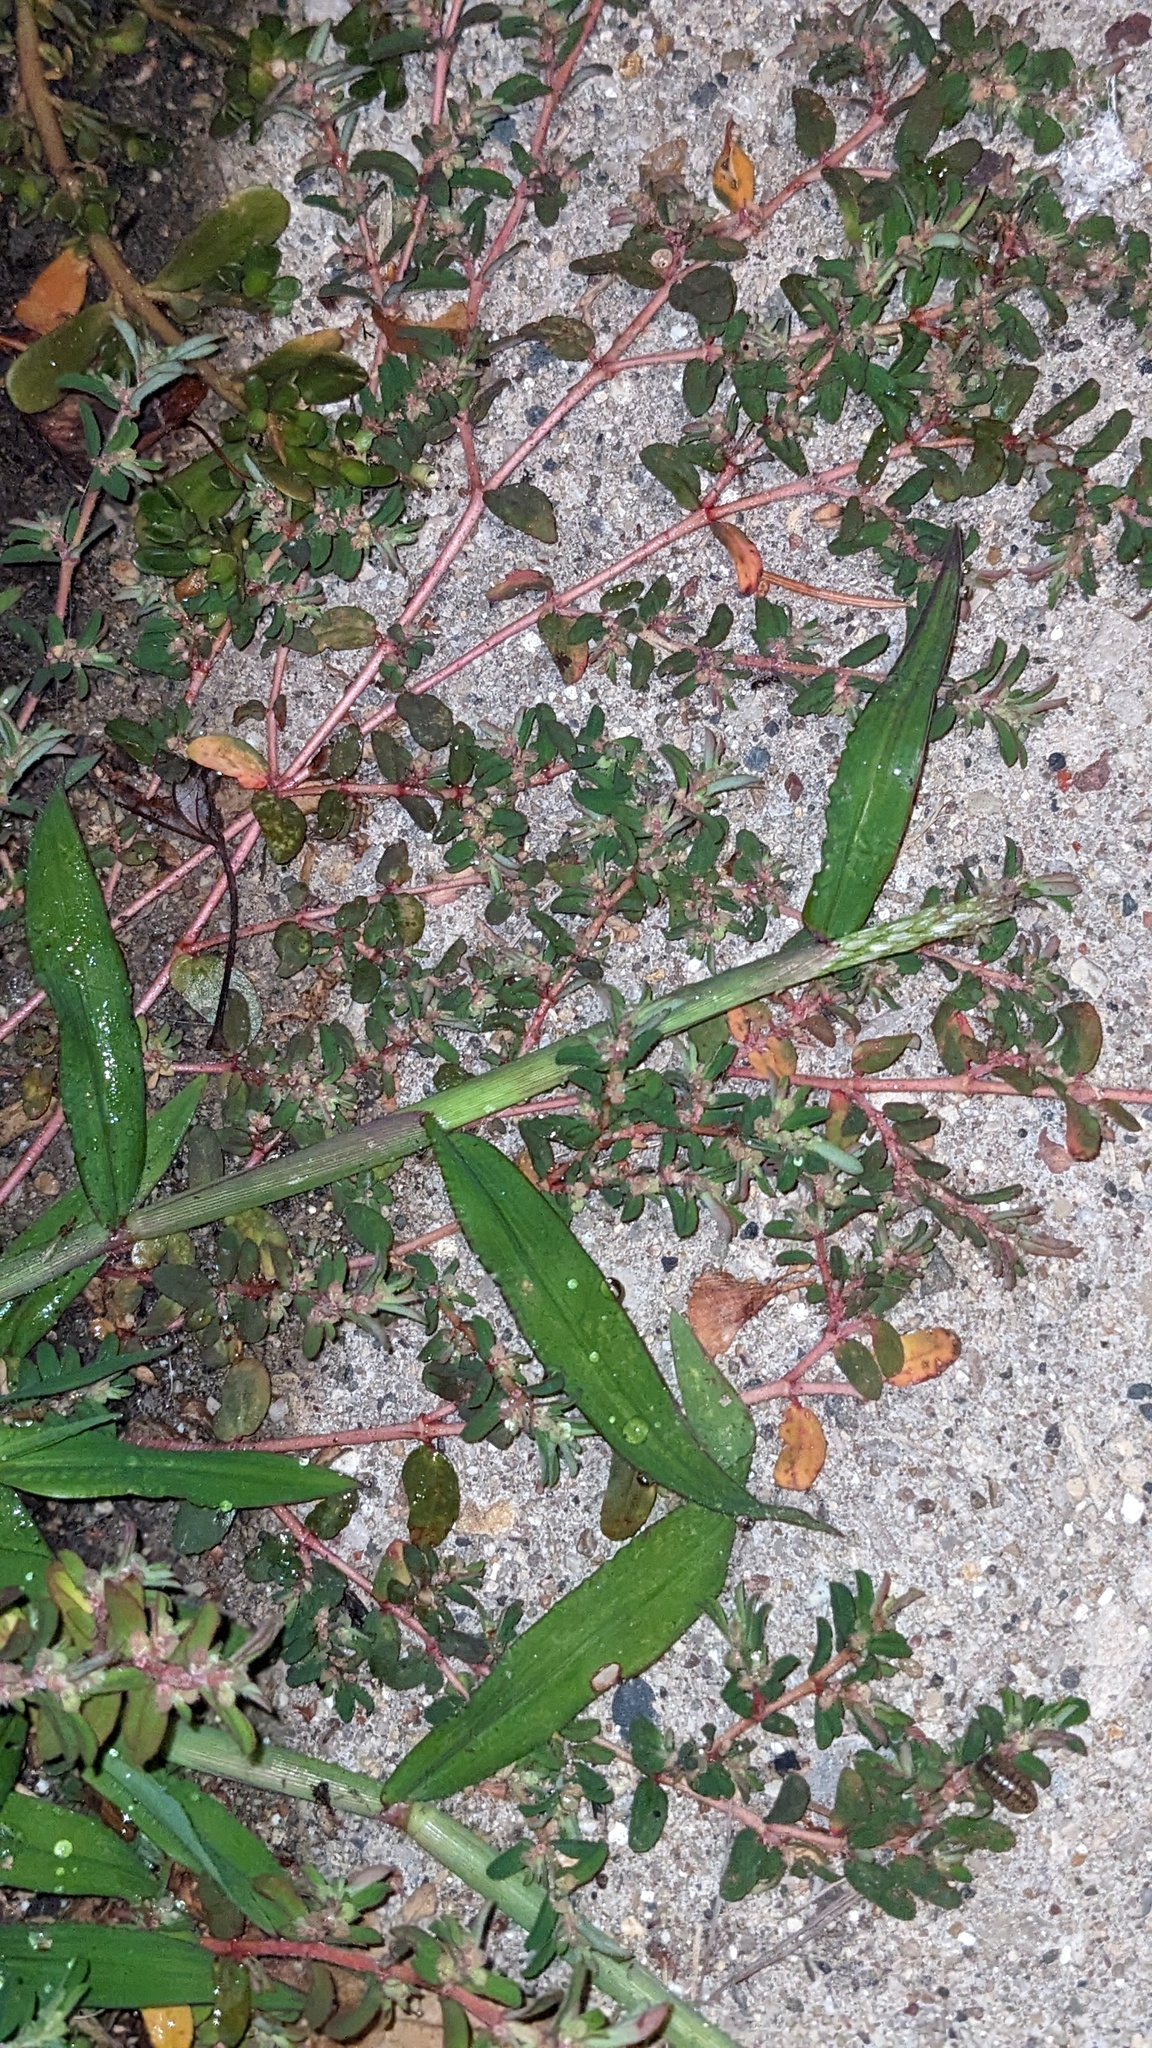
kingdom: Plantae
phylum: Tracheophyta
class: Magnoliopsida
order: Malpighiales
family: Euphorbiaceae
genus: Euphorbia
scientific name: Euphorbia maculata
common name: Spotted spurge
